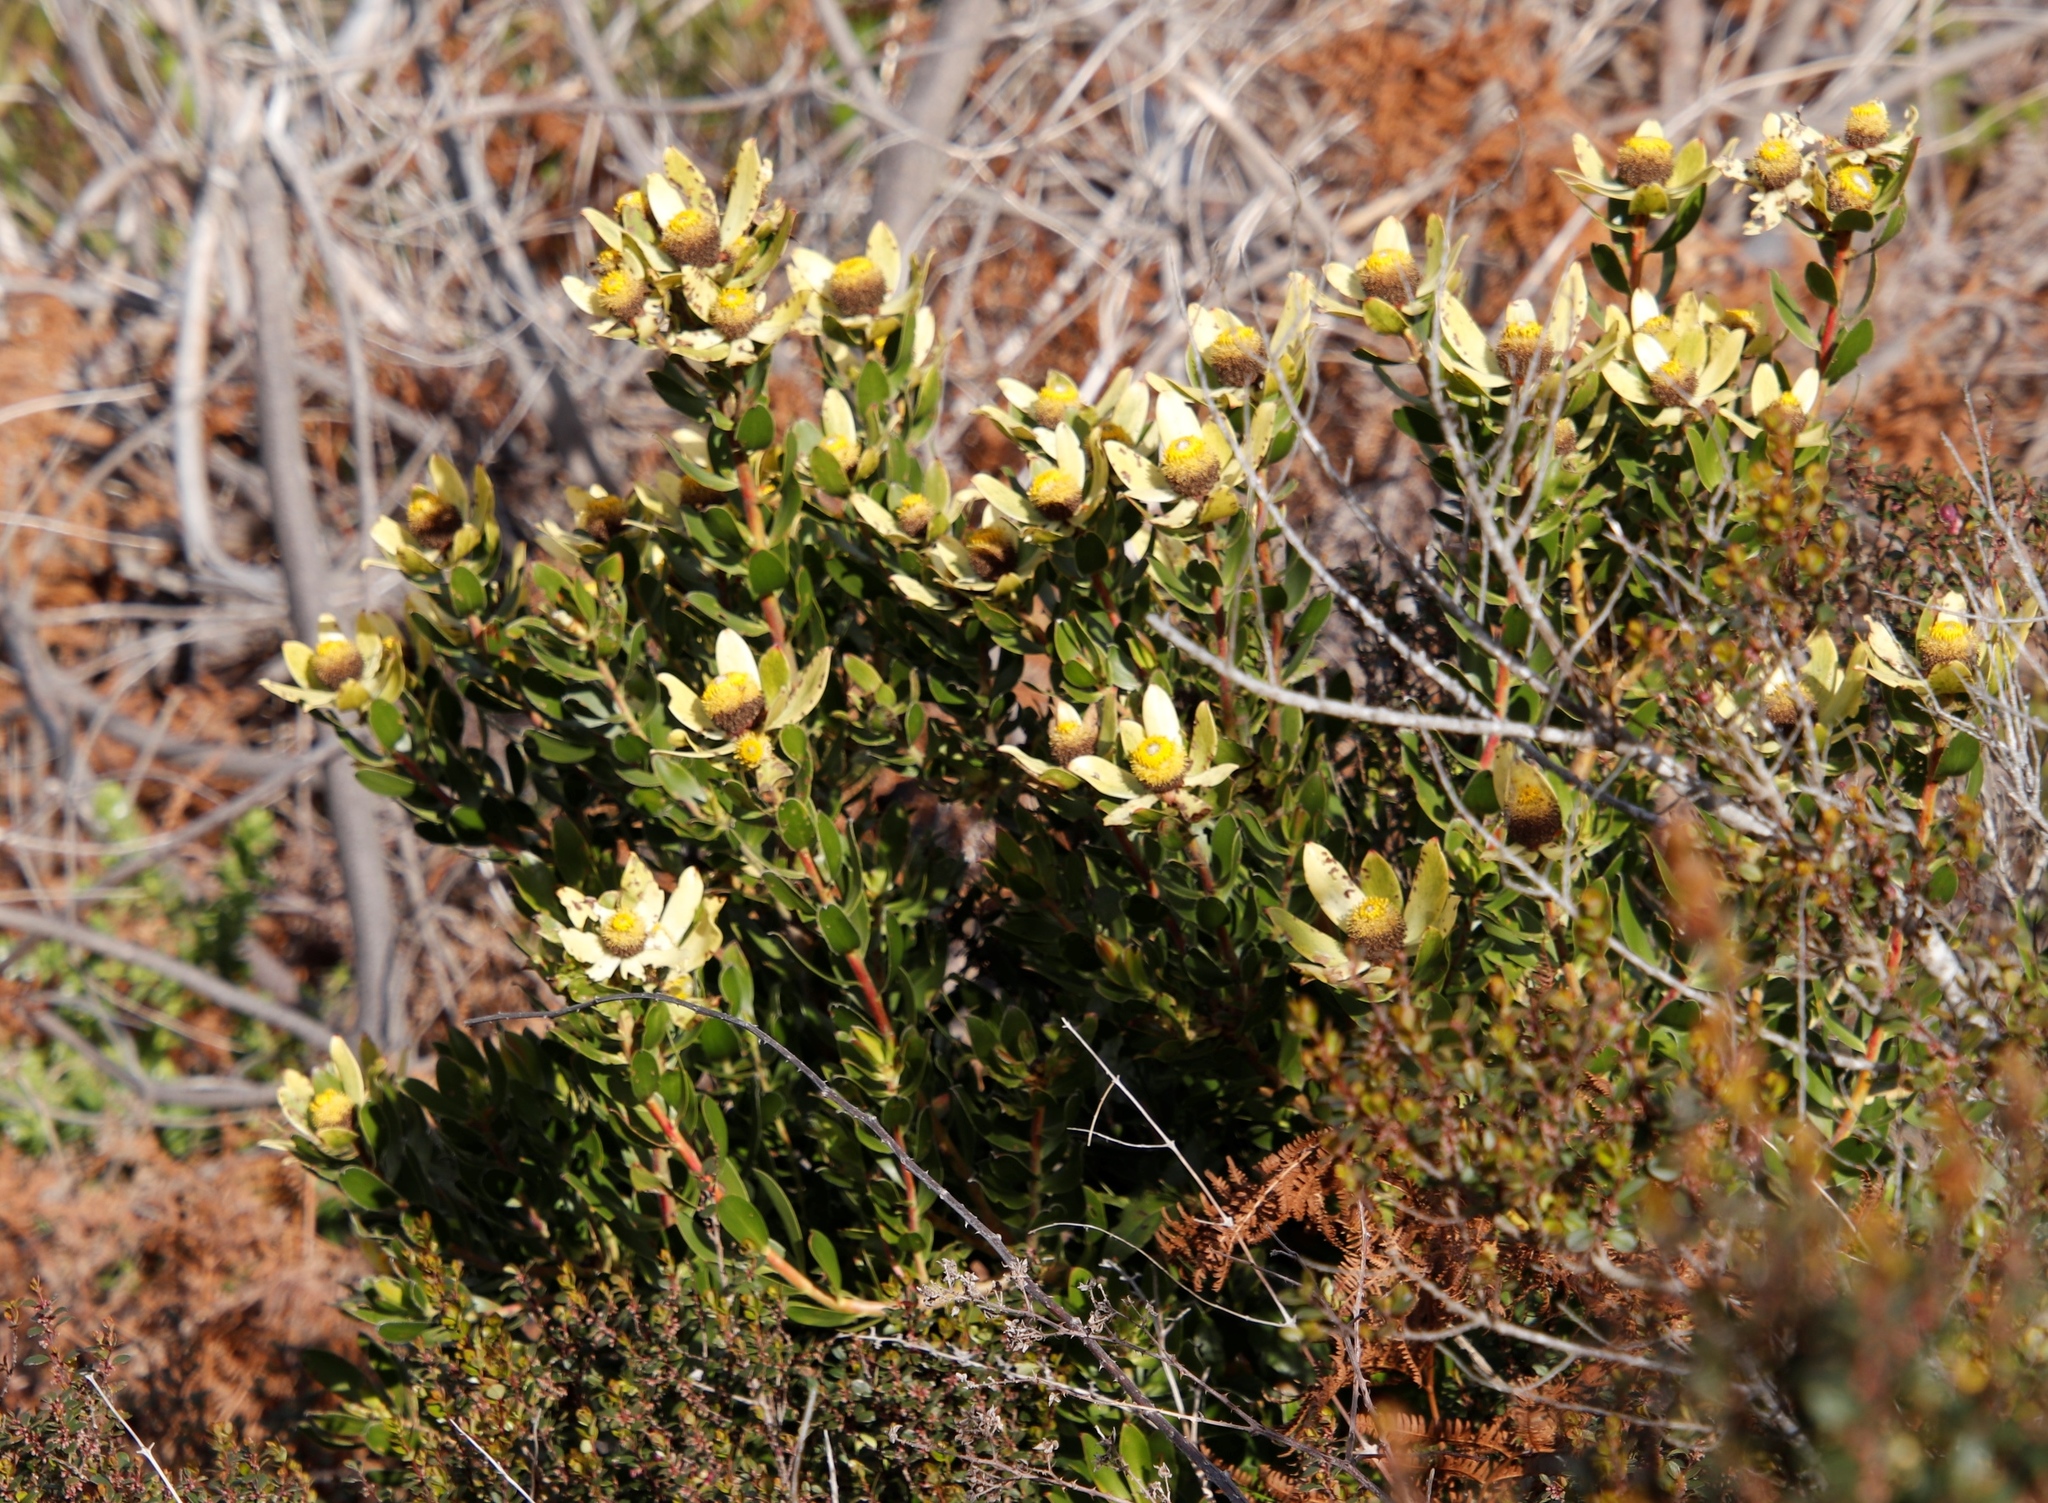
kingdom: Plantae
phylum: Tracheophyta
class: Magnoliopsida
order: Proteales
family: Proteaceae
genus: Leucadendron
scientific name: Leucadendron strobilinum
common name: Mountain rose
